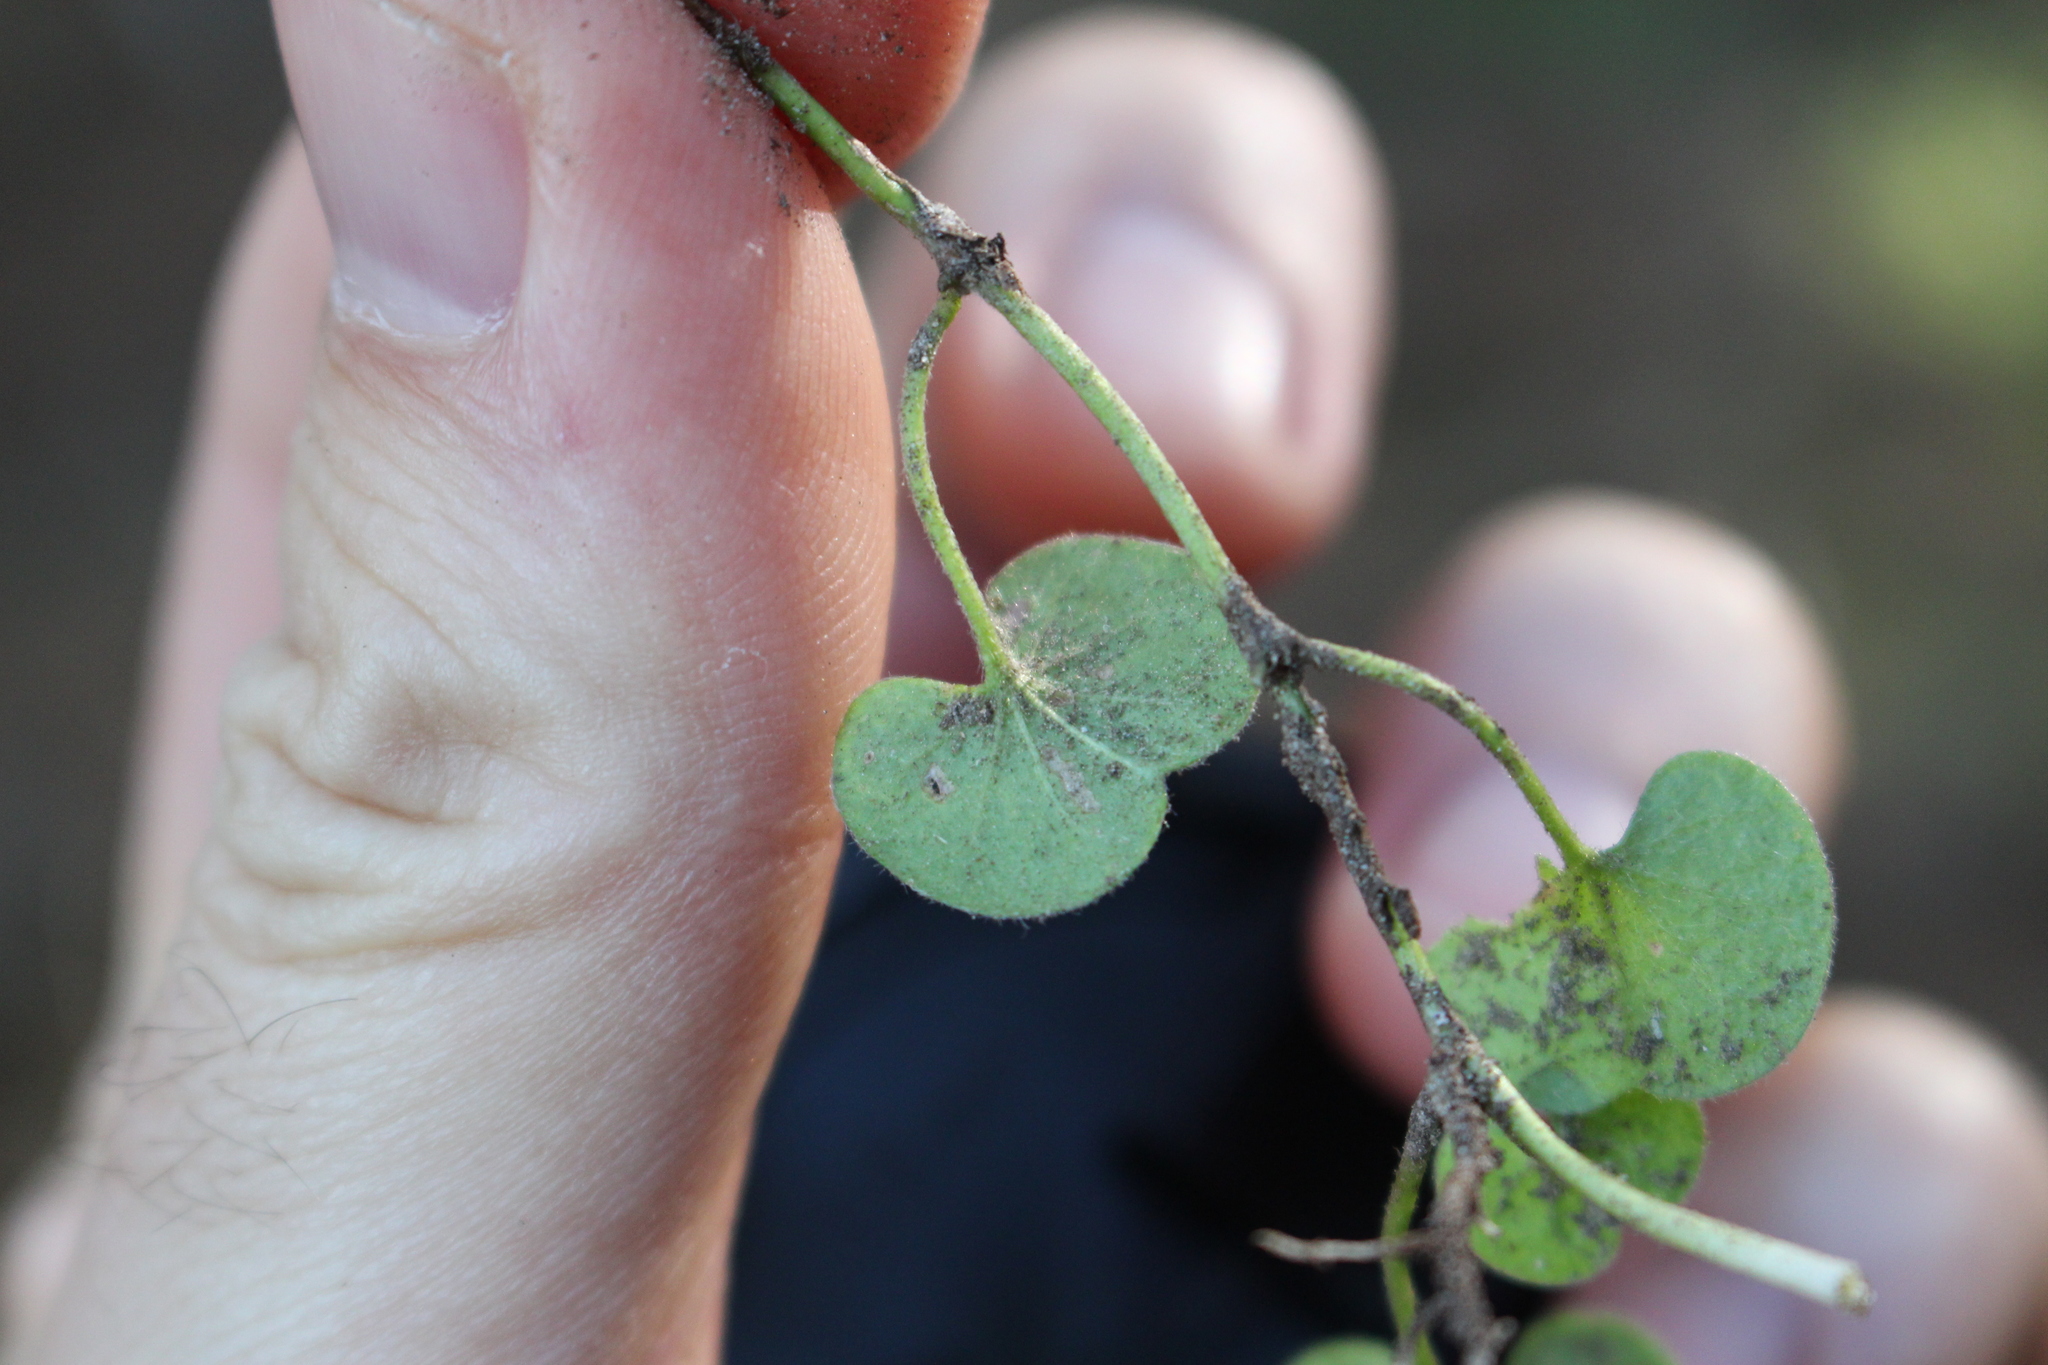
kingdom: Plantae
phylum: Tracheophyta
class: Magnoliopsida
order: Solanales
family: Convolvulaceae
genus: Dichondra
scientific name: Dichondra repens
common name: Kidneyweed
